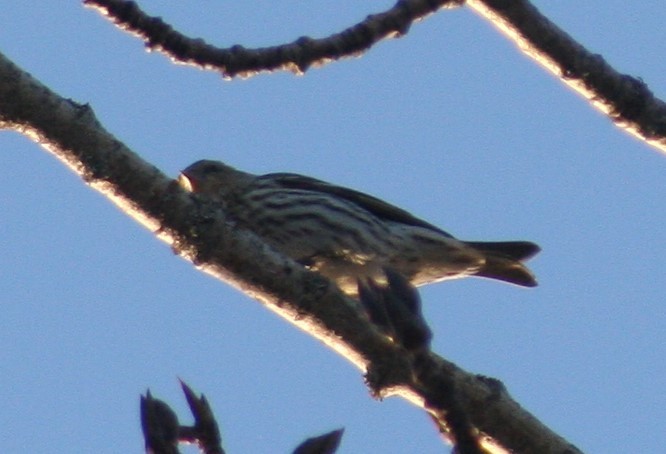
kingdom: Animalia
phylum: Chordata
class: Aves
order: Passeriformes
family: Fringillidae
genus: Spinus
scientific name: Spinus pinus
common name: Pine siskin
